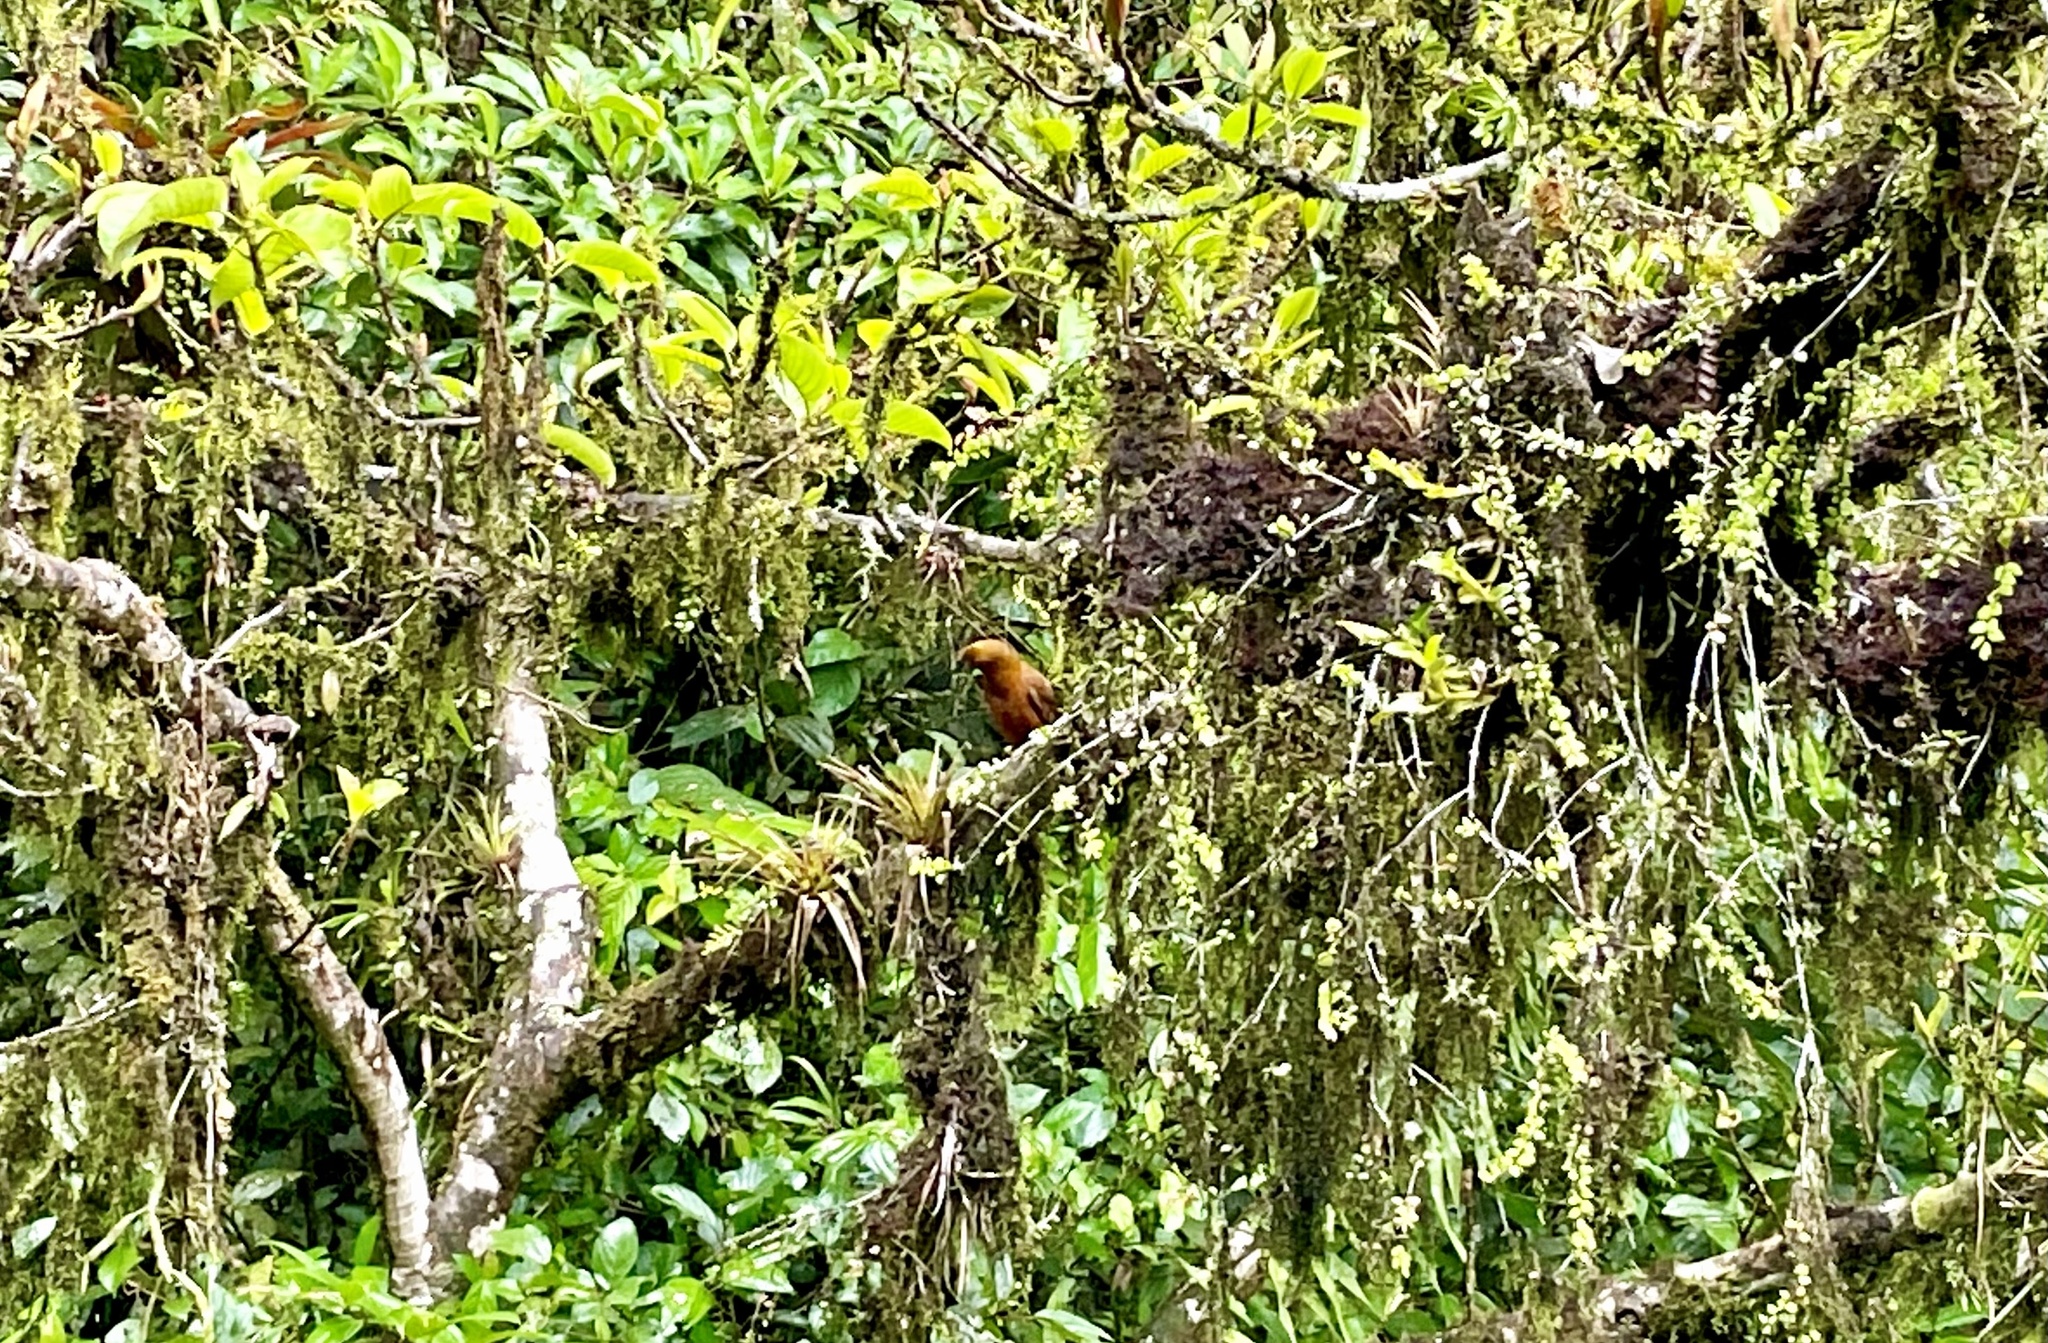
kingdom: Animalia
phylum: Chordata
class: Aves
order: Passeriformes
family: Cotingidae
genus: Rupicola
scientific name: Rupicola peruvianus
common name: Andean cock-of-the-rock
